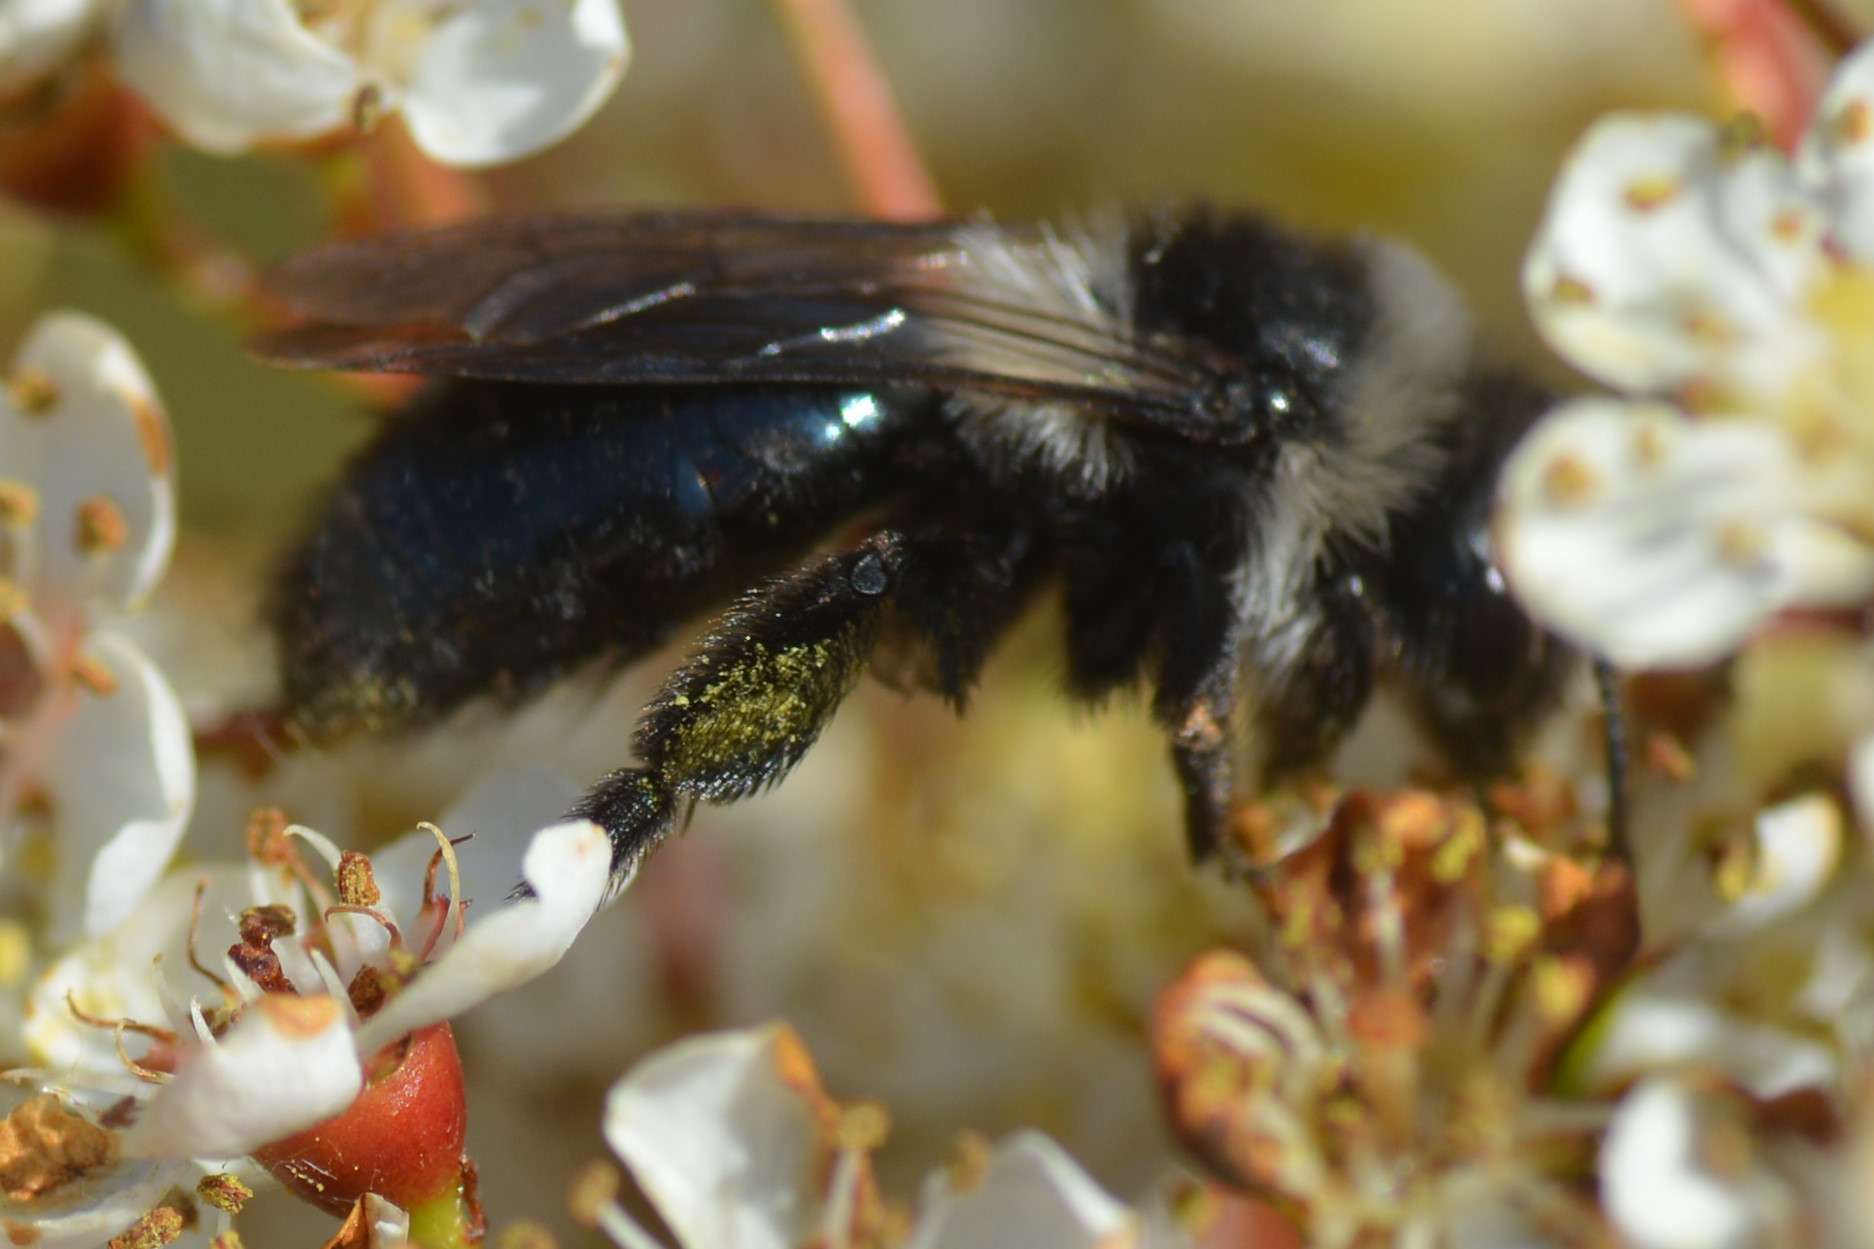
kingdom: Animalia
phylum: Arthropoda
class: Insecta
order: Hymenoptera
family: Andrenidae
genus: Andrena
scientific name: Andrena cineraria
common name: Ashy mining bee
